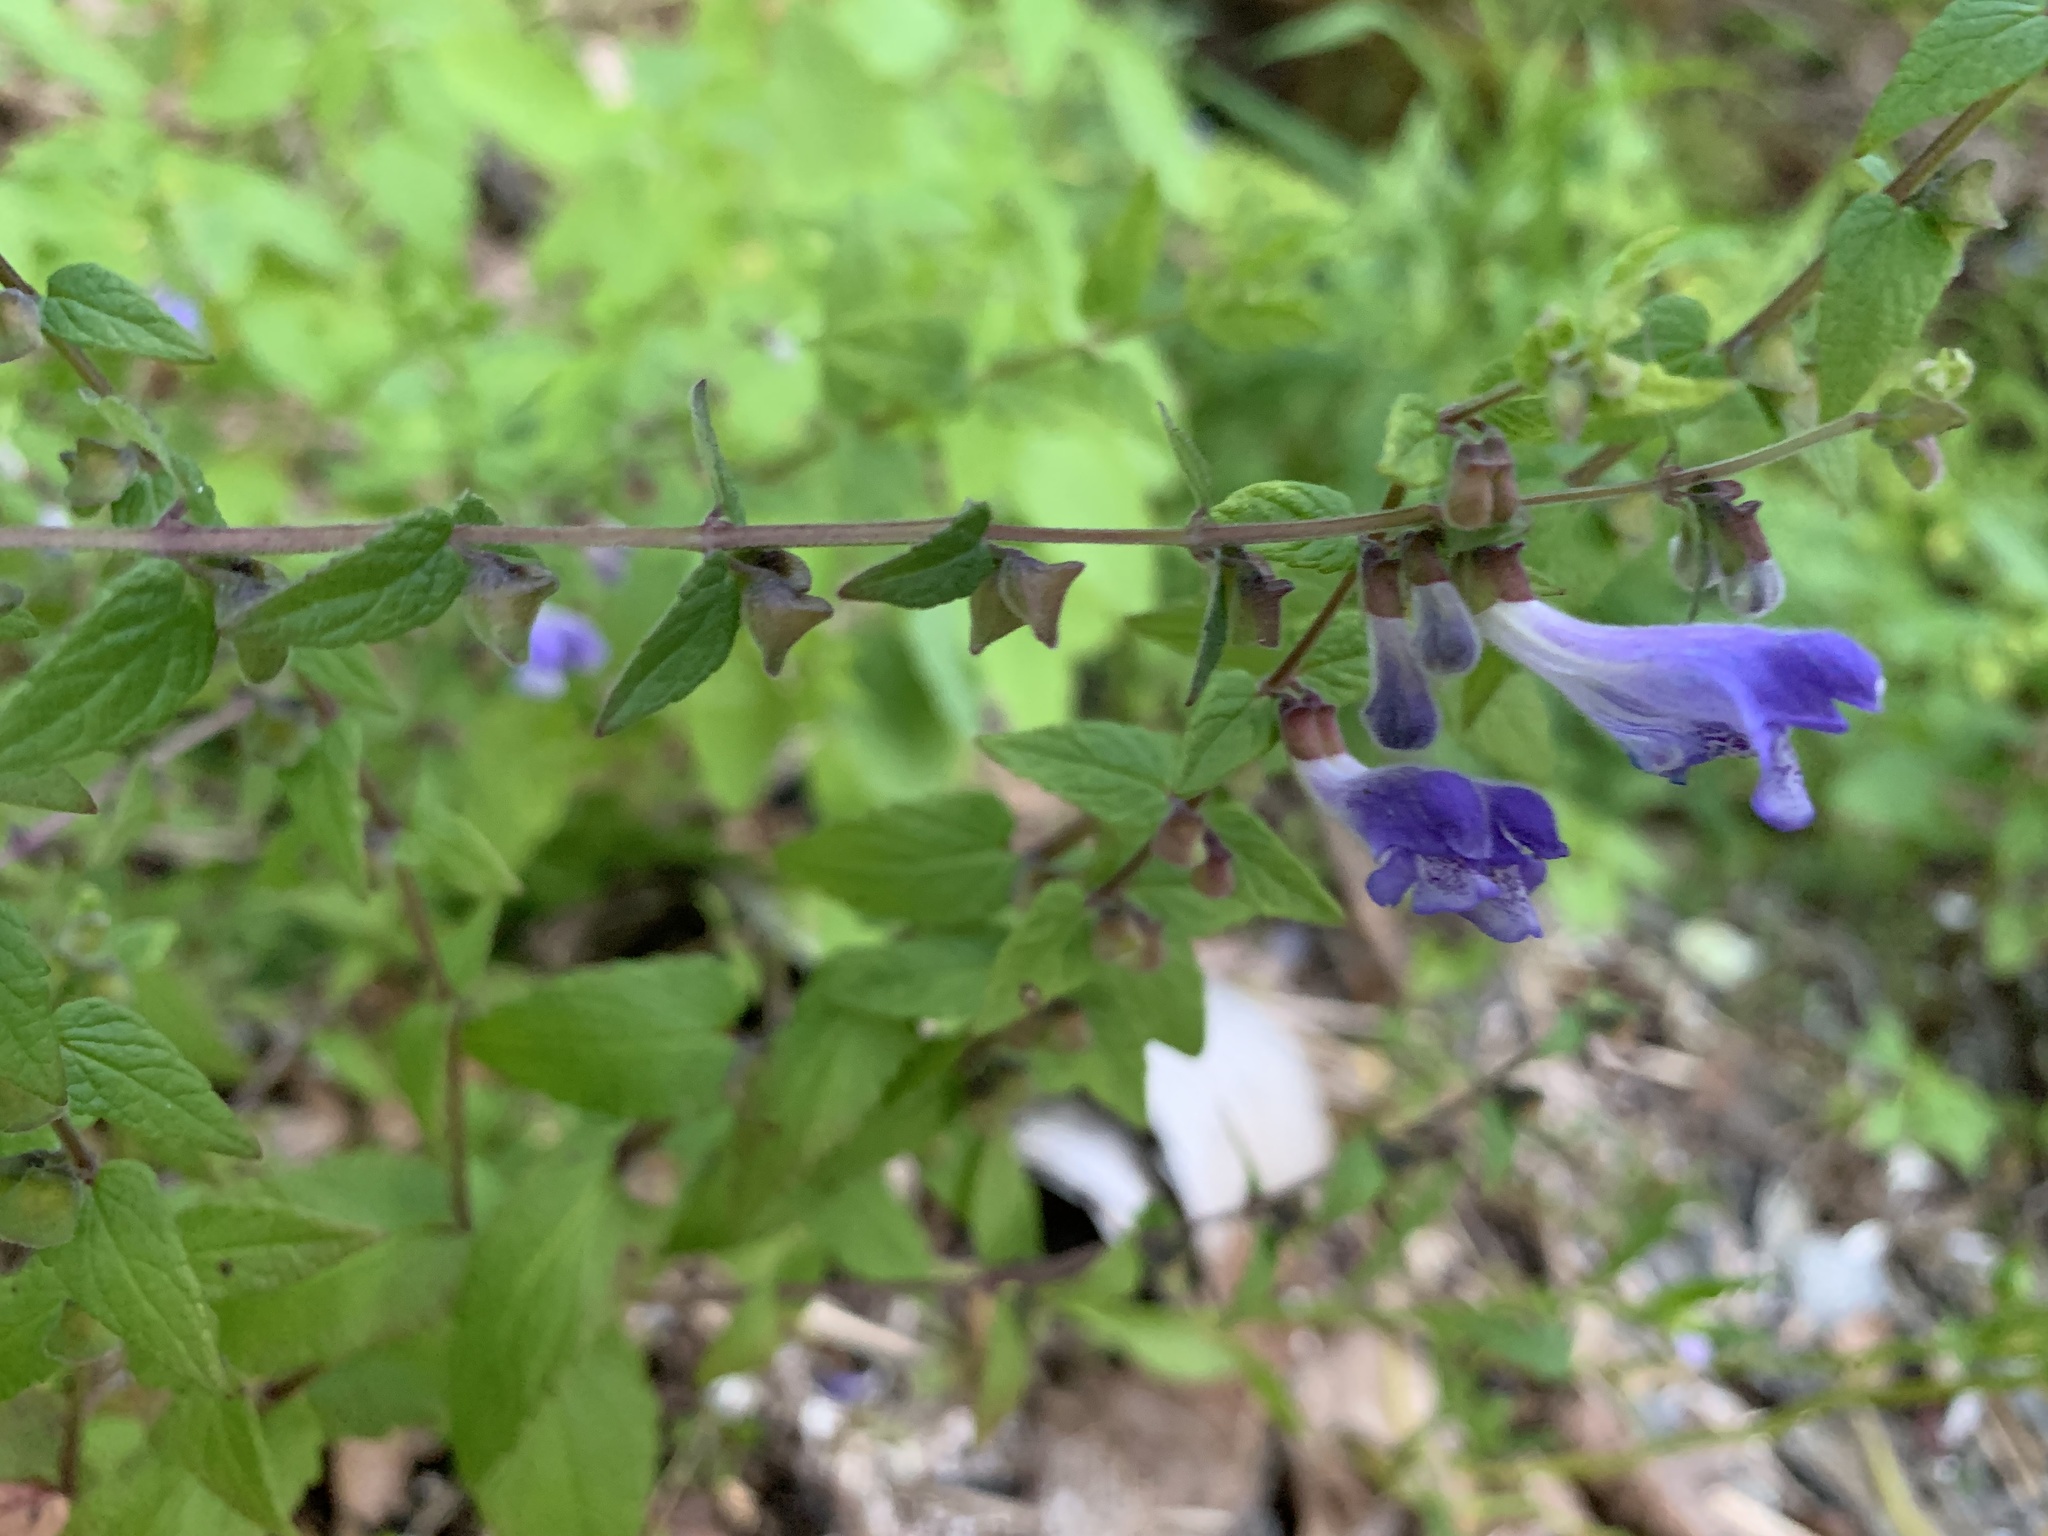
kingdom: Plantae
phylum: Tracheophyta
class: Magnoliopsida
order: Lamiales
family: Lamiaceae
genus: Scutellaria
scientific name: Scutellaria galericulata
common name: Skullcap
